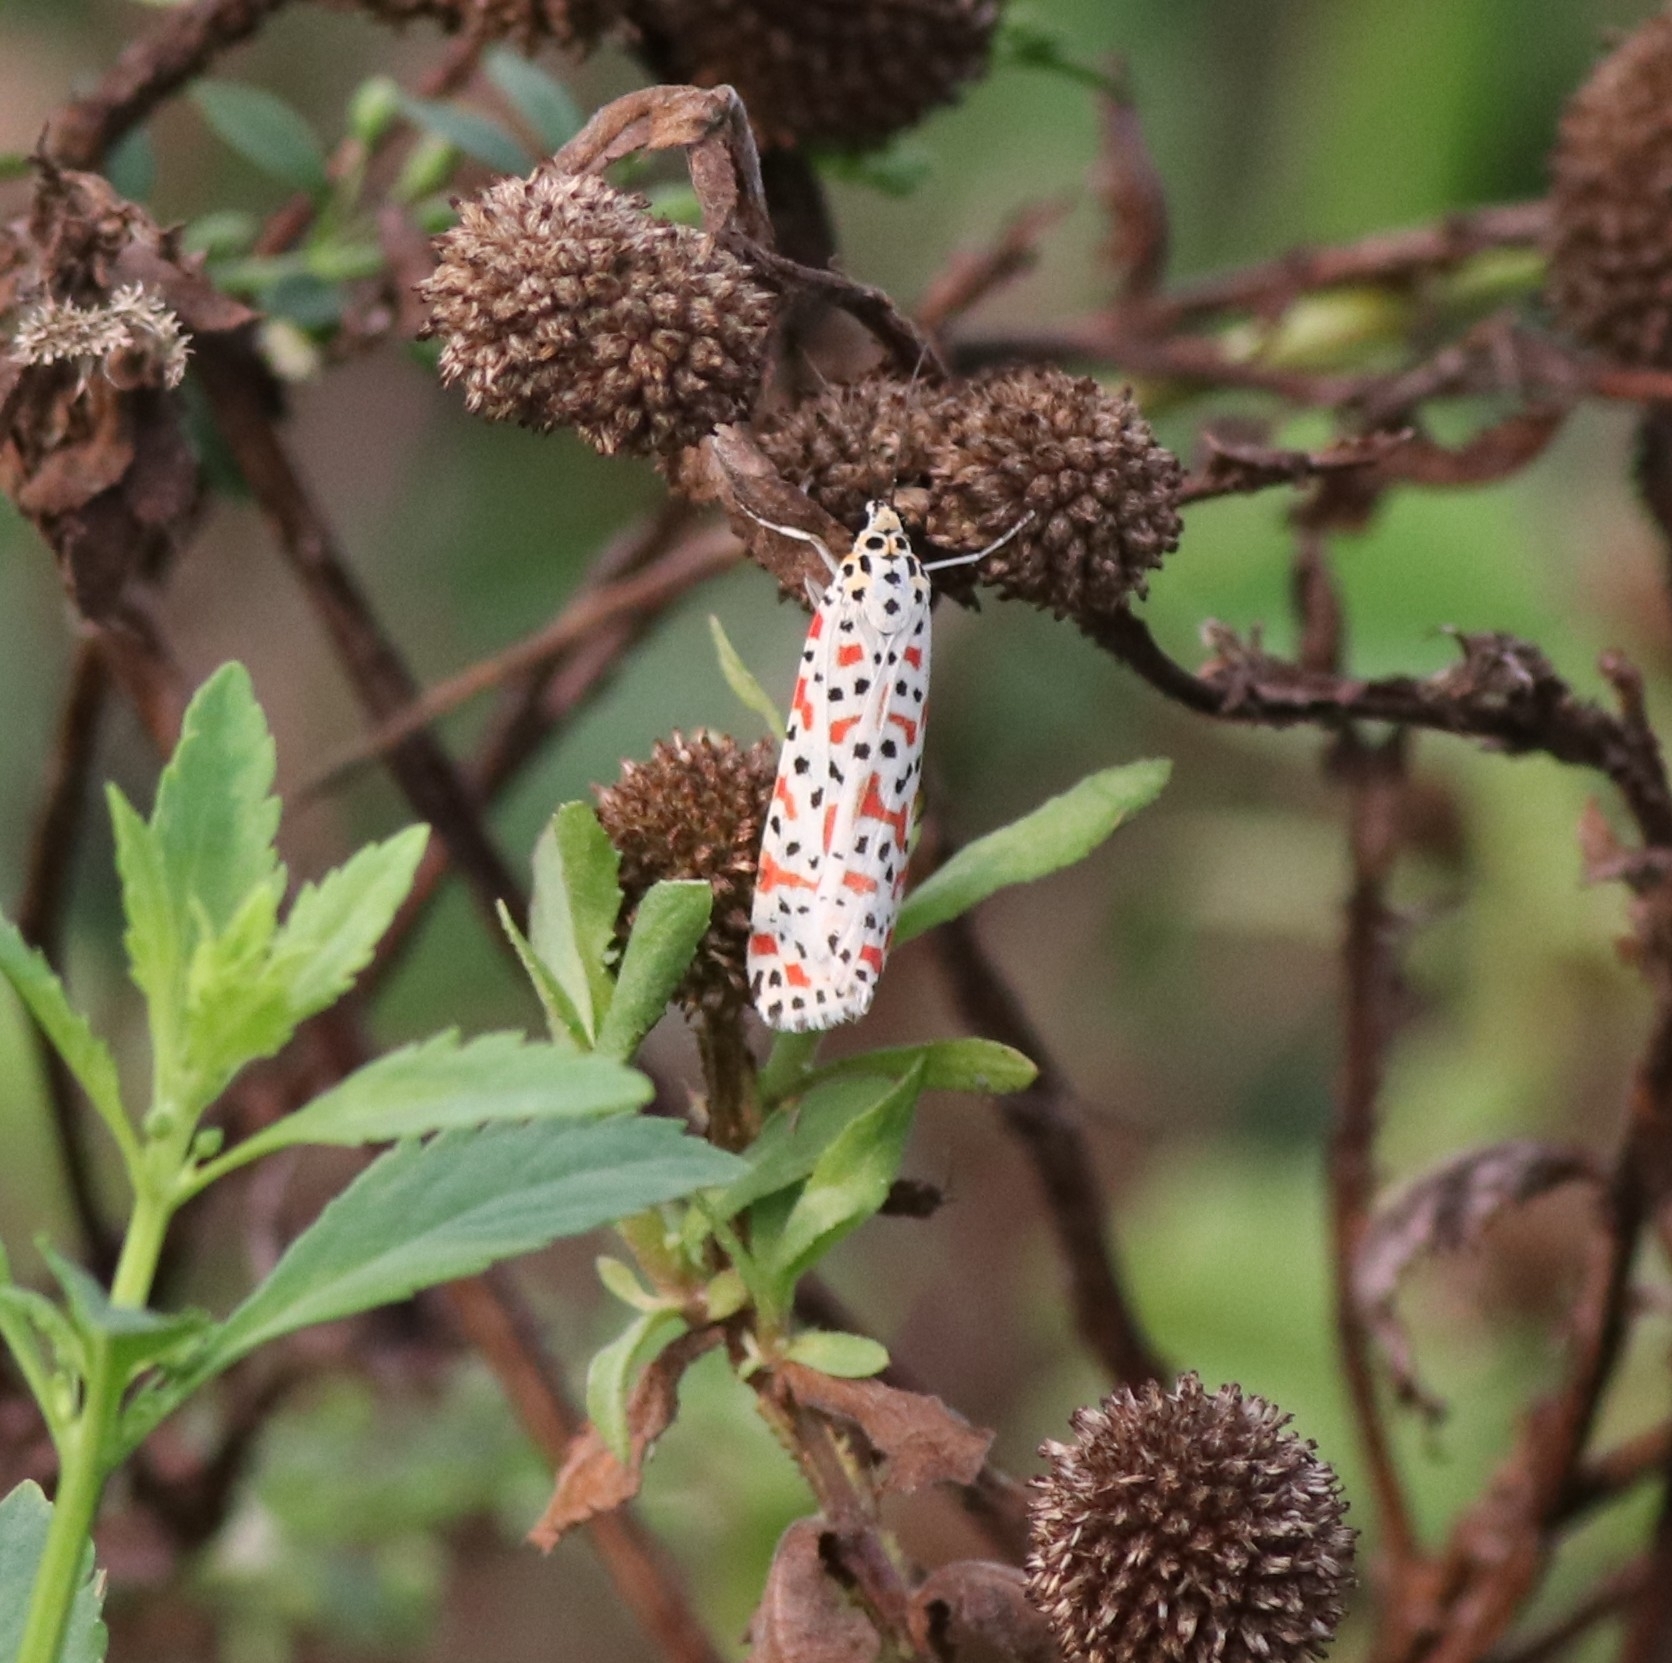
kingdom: Animalia
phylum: Arthropoda
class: Insecta
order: Lepidoptera
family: Erebidae
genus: Utetheisa
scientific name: Utetheisa lotrix
